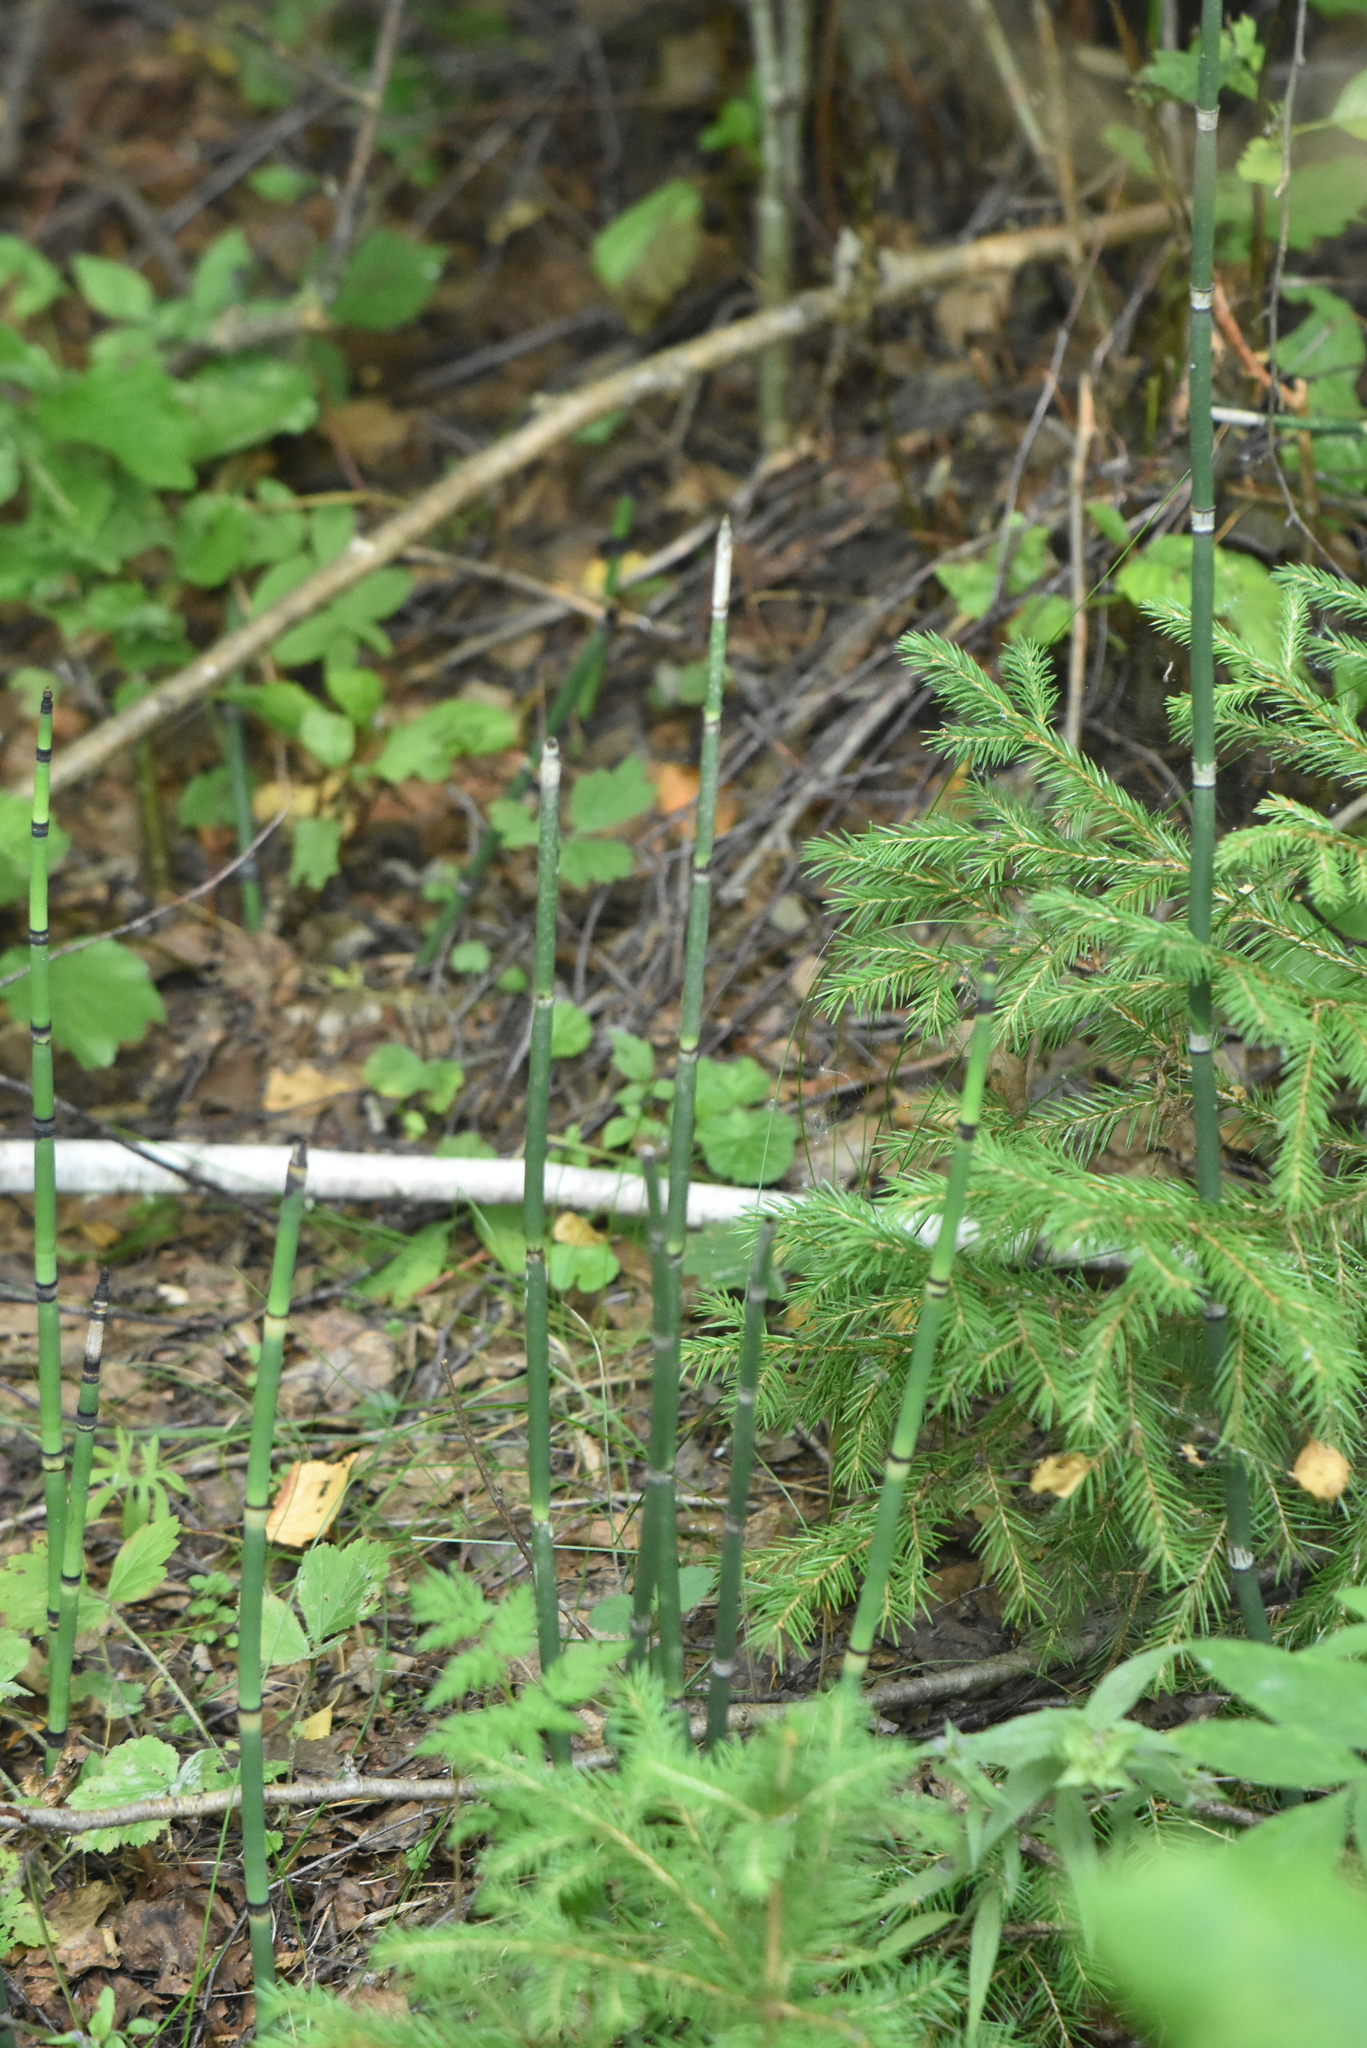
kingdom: Plantae
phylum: Tracheophyta
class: Polypodiopsida
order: Equisetales
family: Equisetaceae
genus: Equisetum
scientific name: Equisetum hyemale
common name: Rough horsetail
